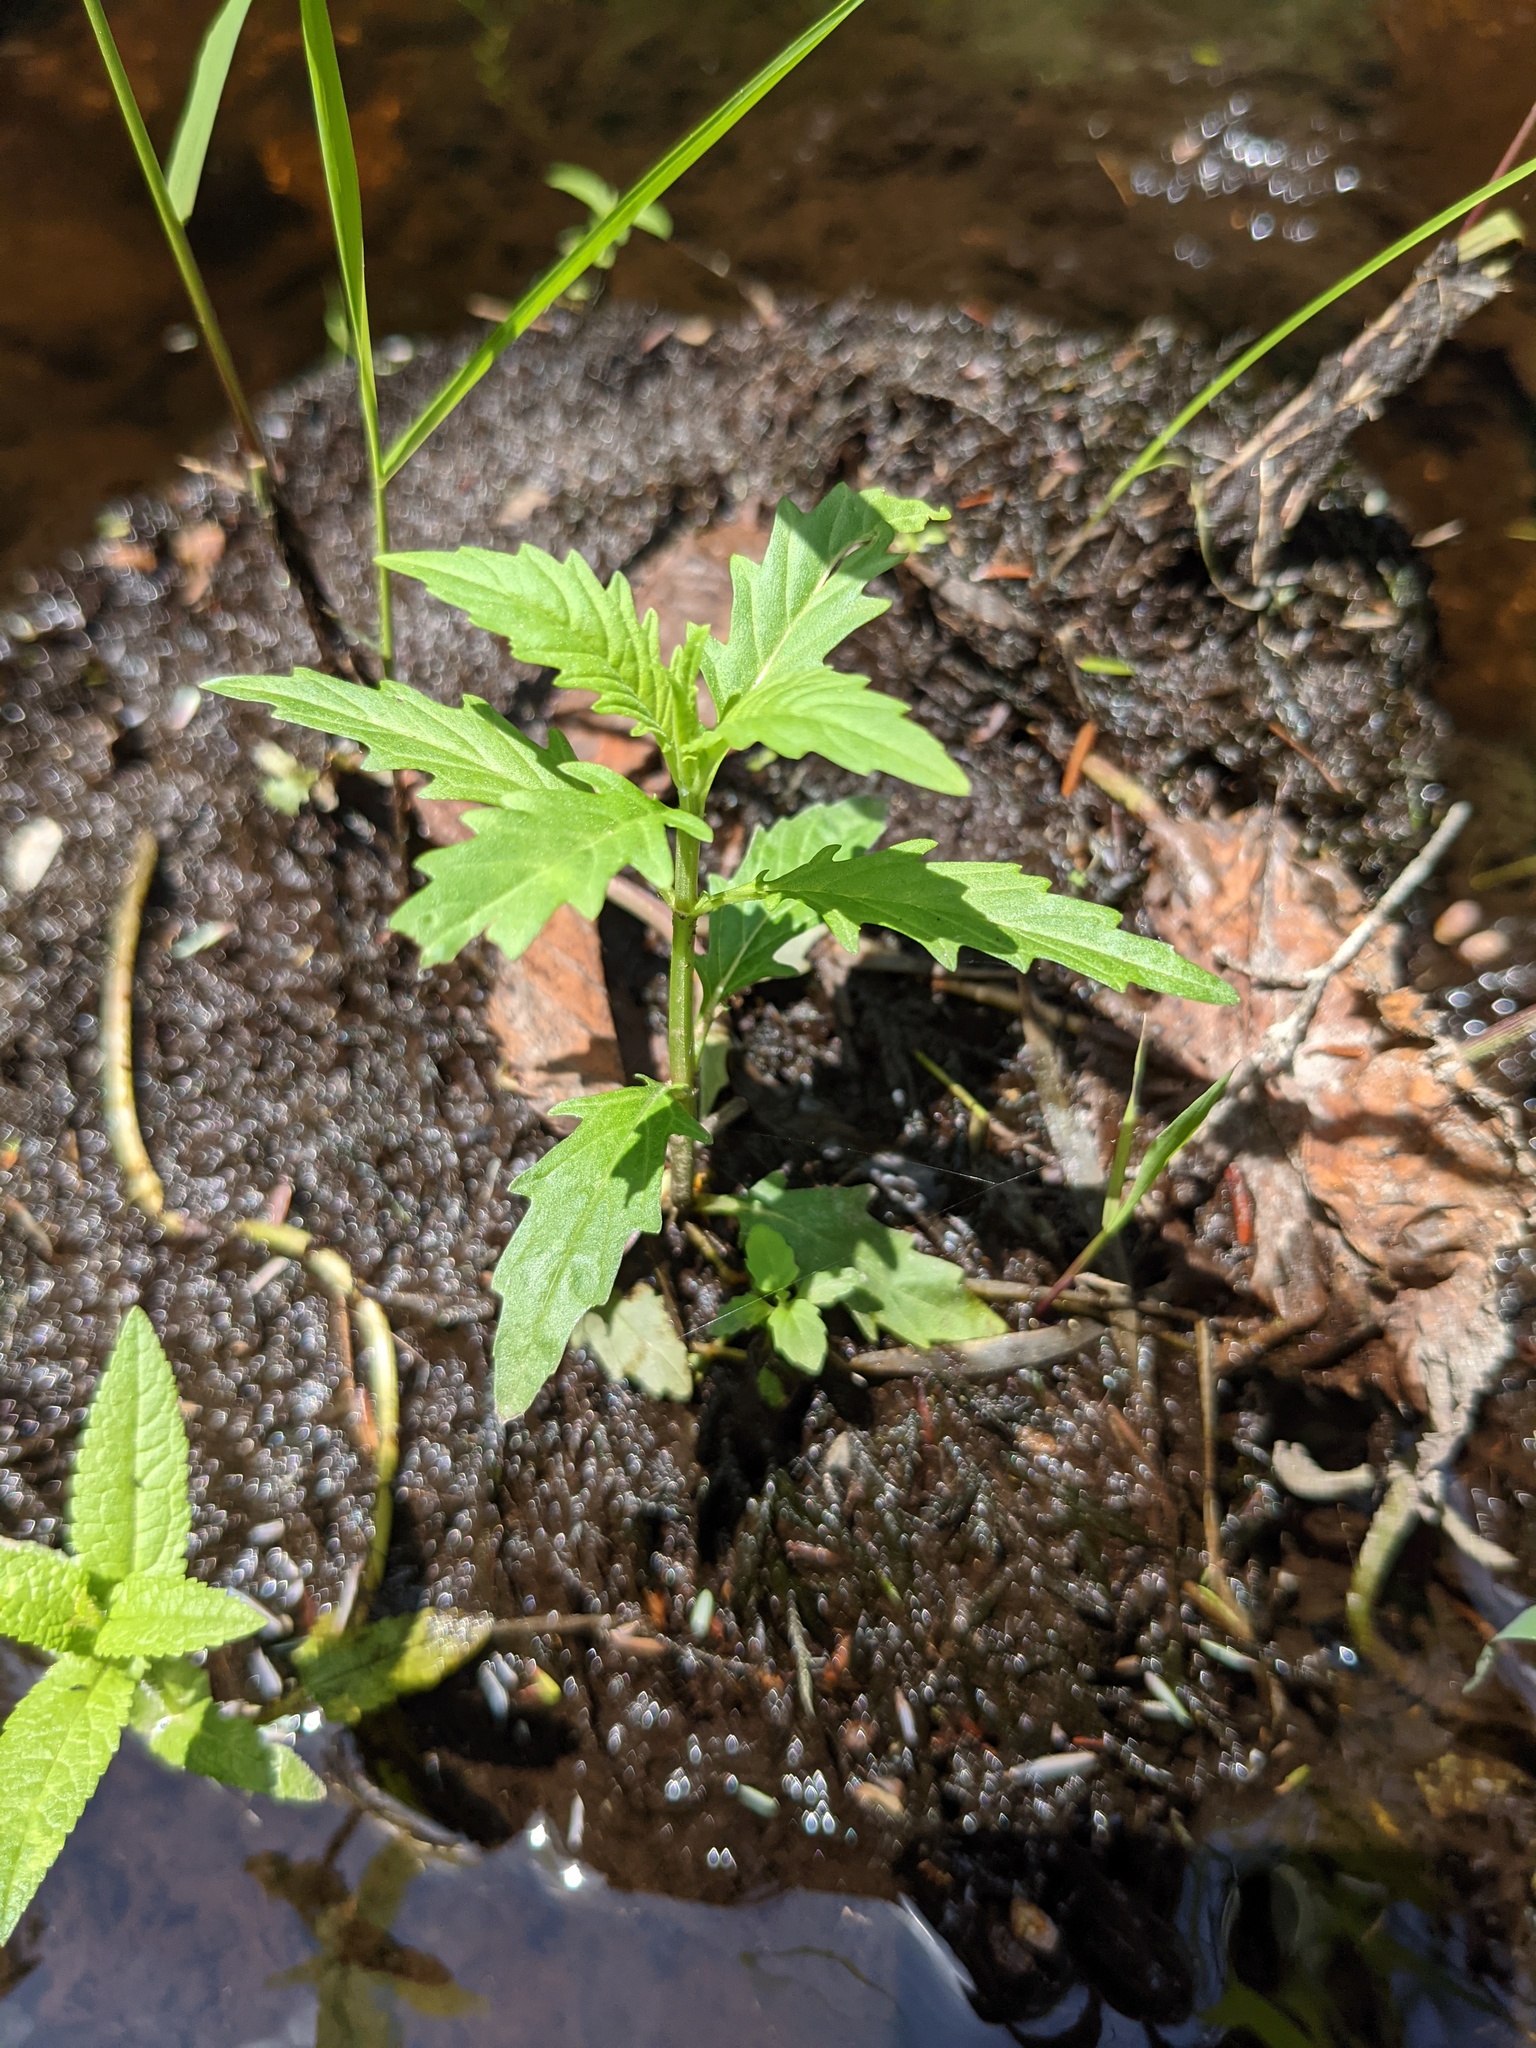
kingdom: Plantae
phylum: Tracheophyta
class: Magnoliopsida
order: Lamiales
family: Lamiaceae
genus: Lycopus
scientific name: Lycopus americanus
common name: American bugleweed
